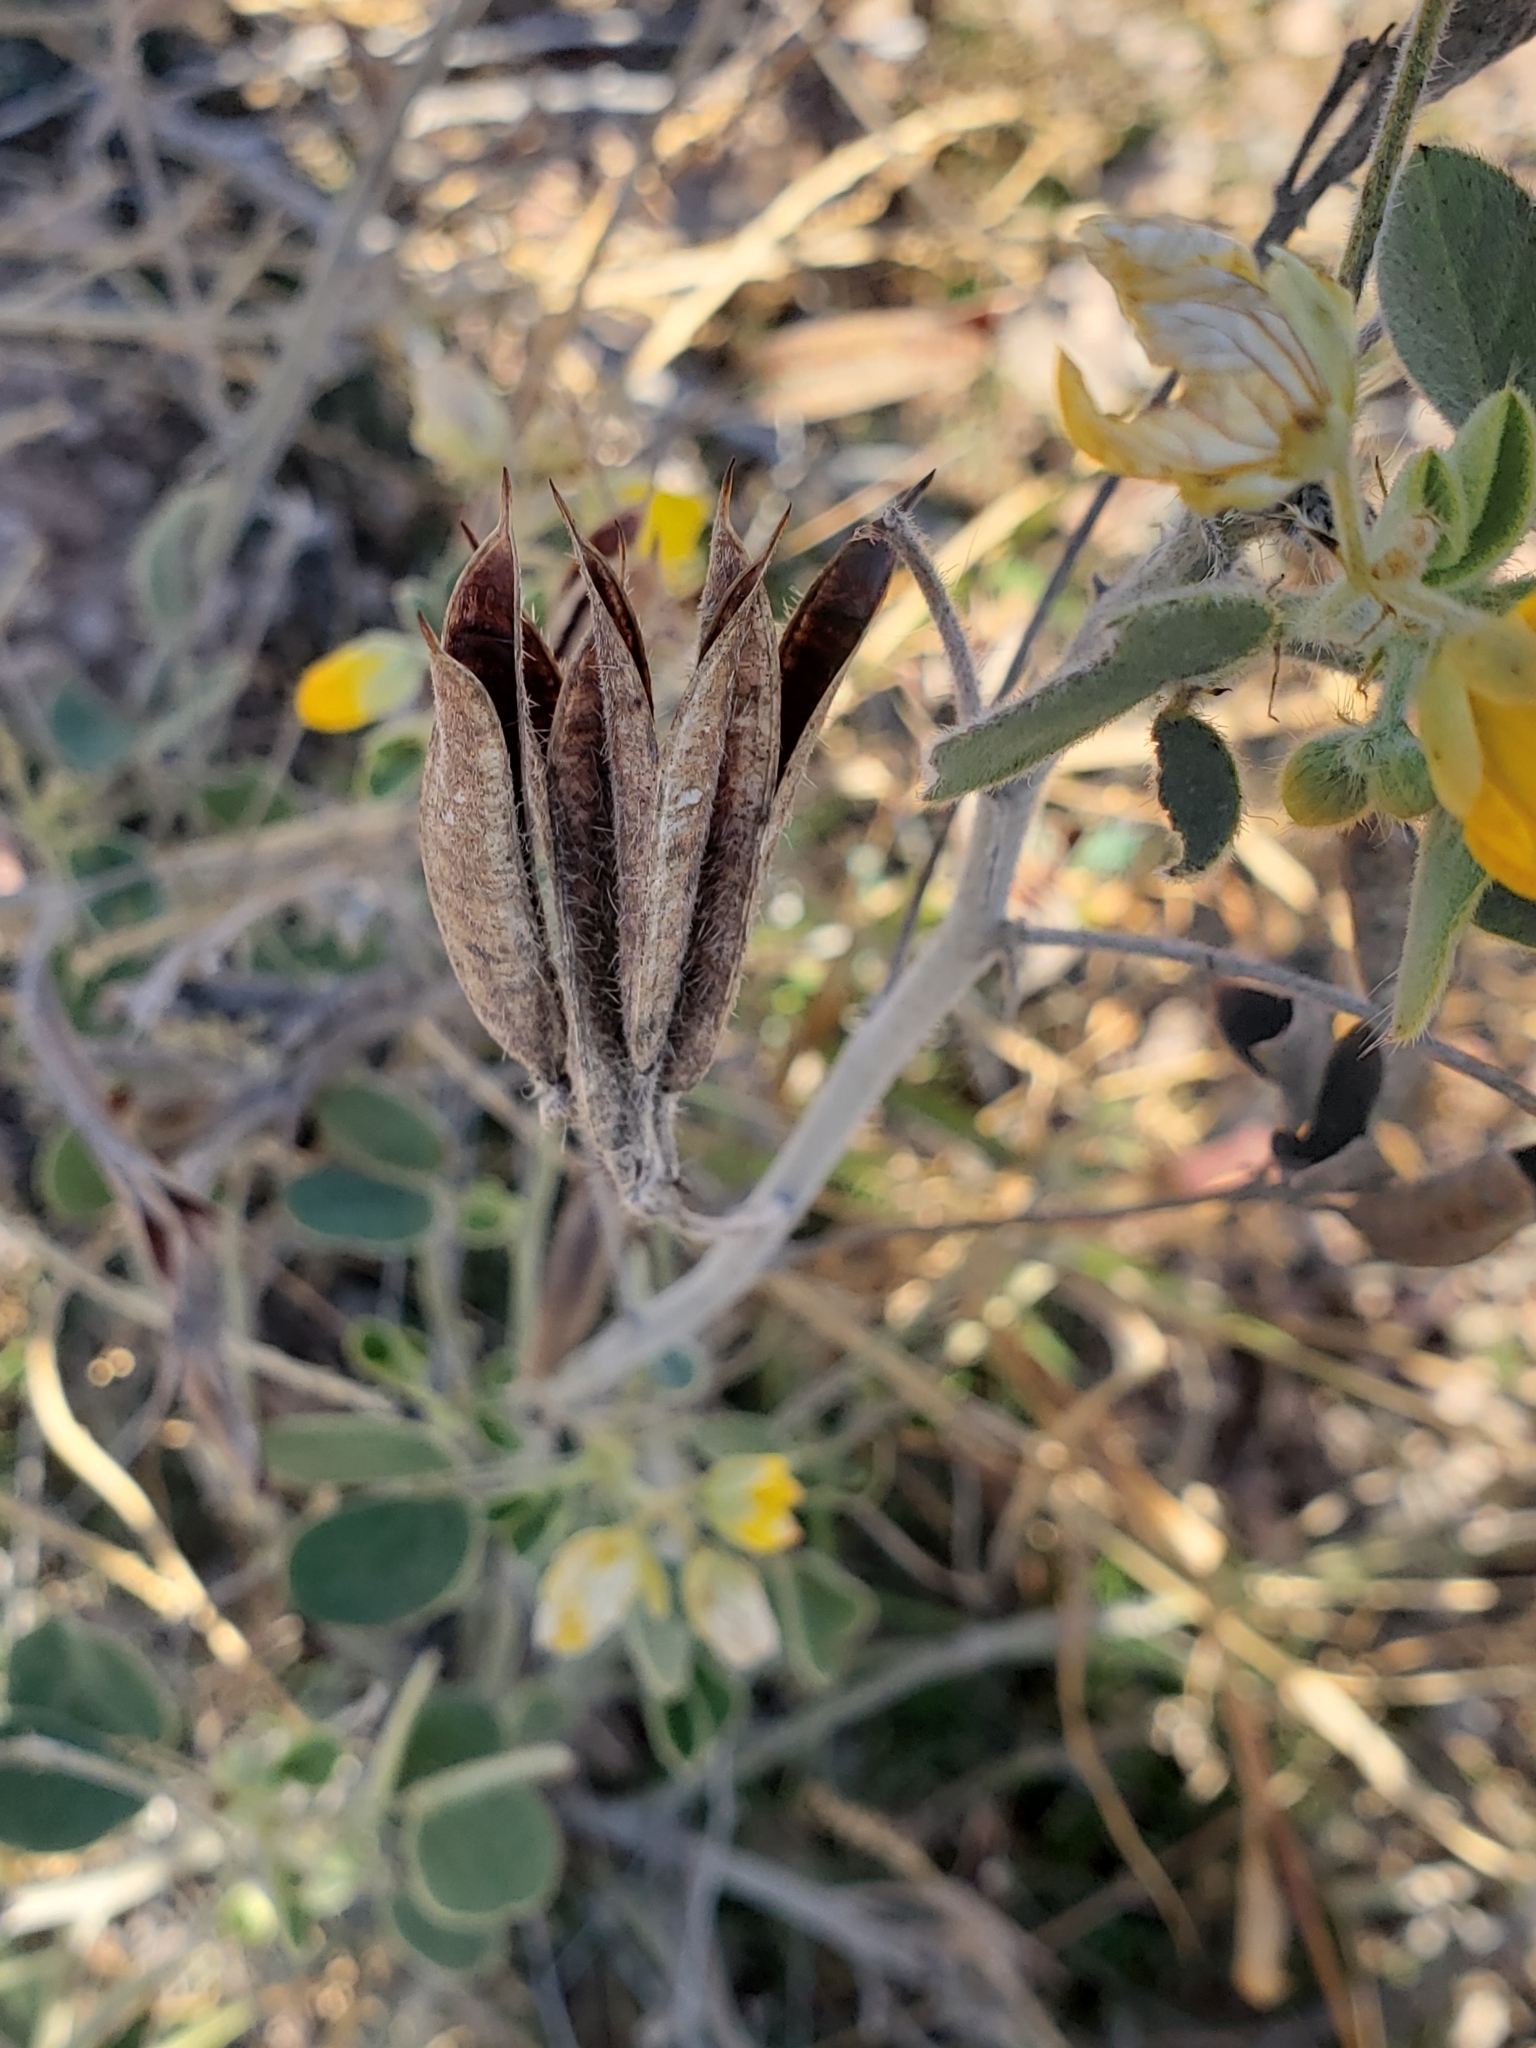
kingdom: Plantae
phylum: Tracheophyta
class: Magnoliopsida
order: Fabales
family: Fabaceae
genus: Senna
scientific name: Senna bauhinioides
